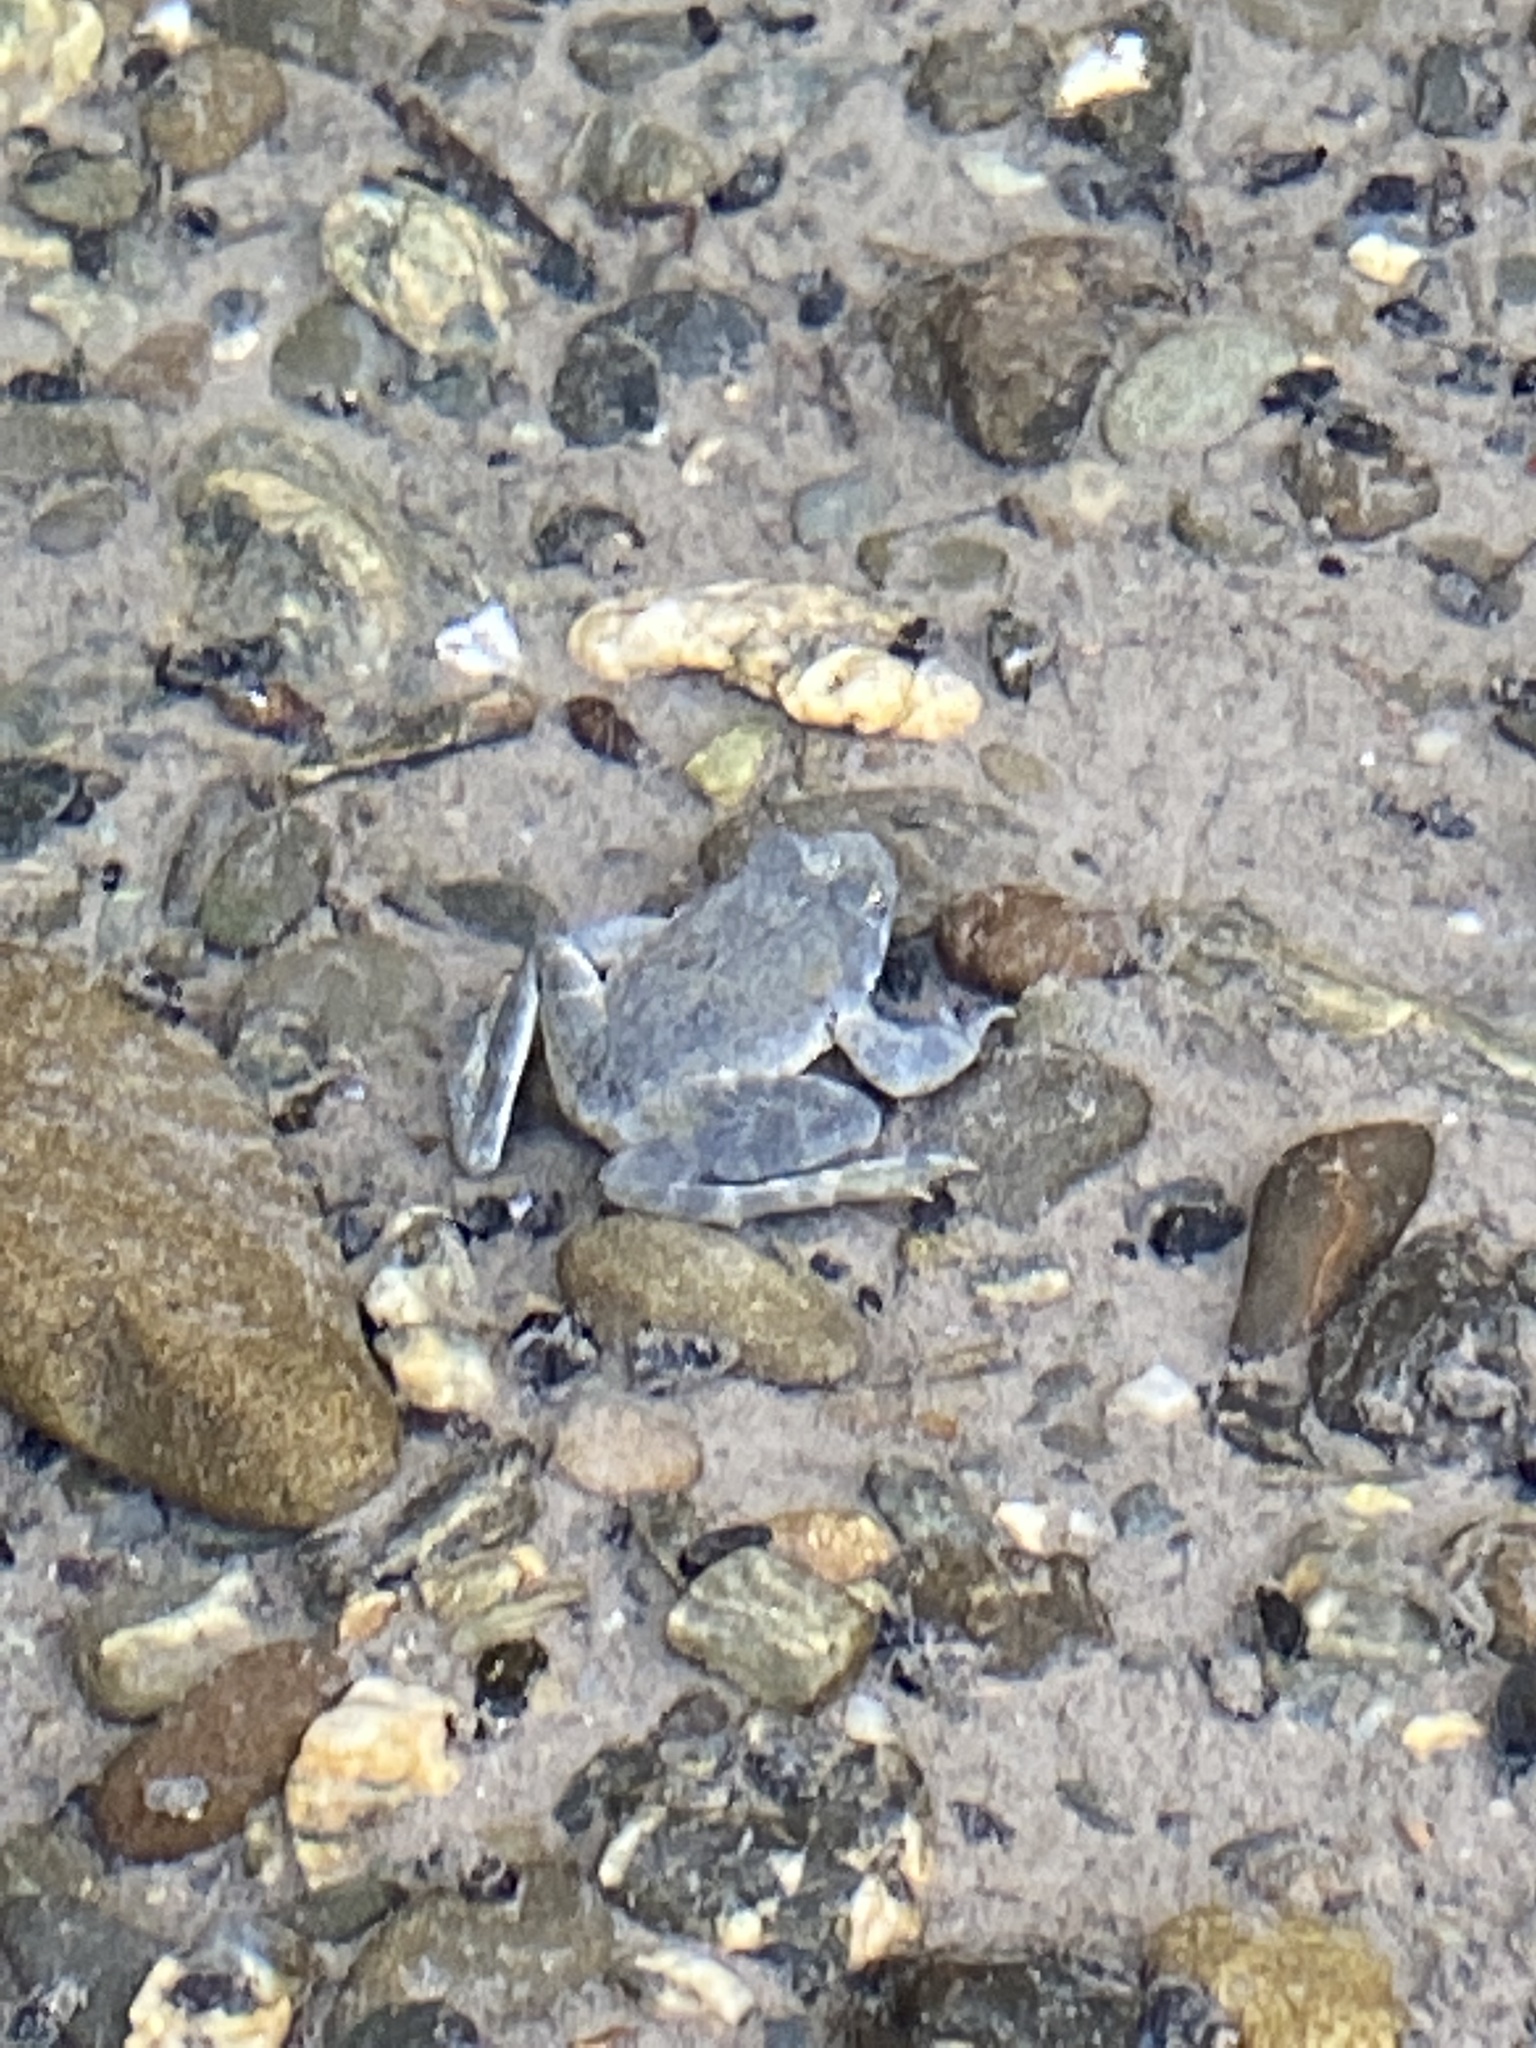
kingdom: Animalia
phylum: Chordata
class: Amphibia
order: Anura
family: Ranidae
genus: Rana
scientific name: Rana boylii
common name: Foothill yellow-legged frog
